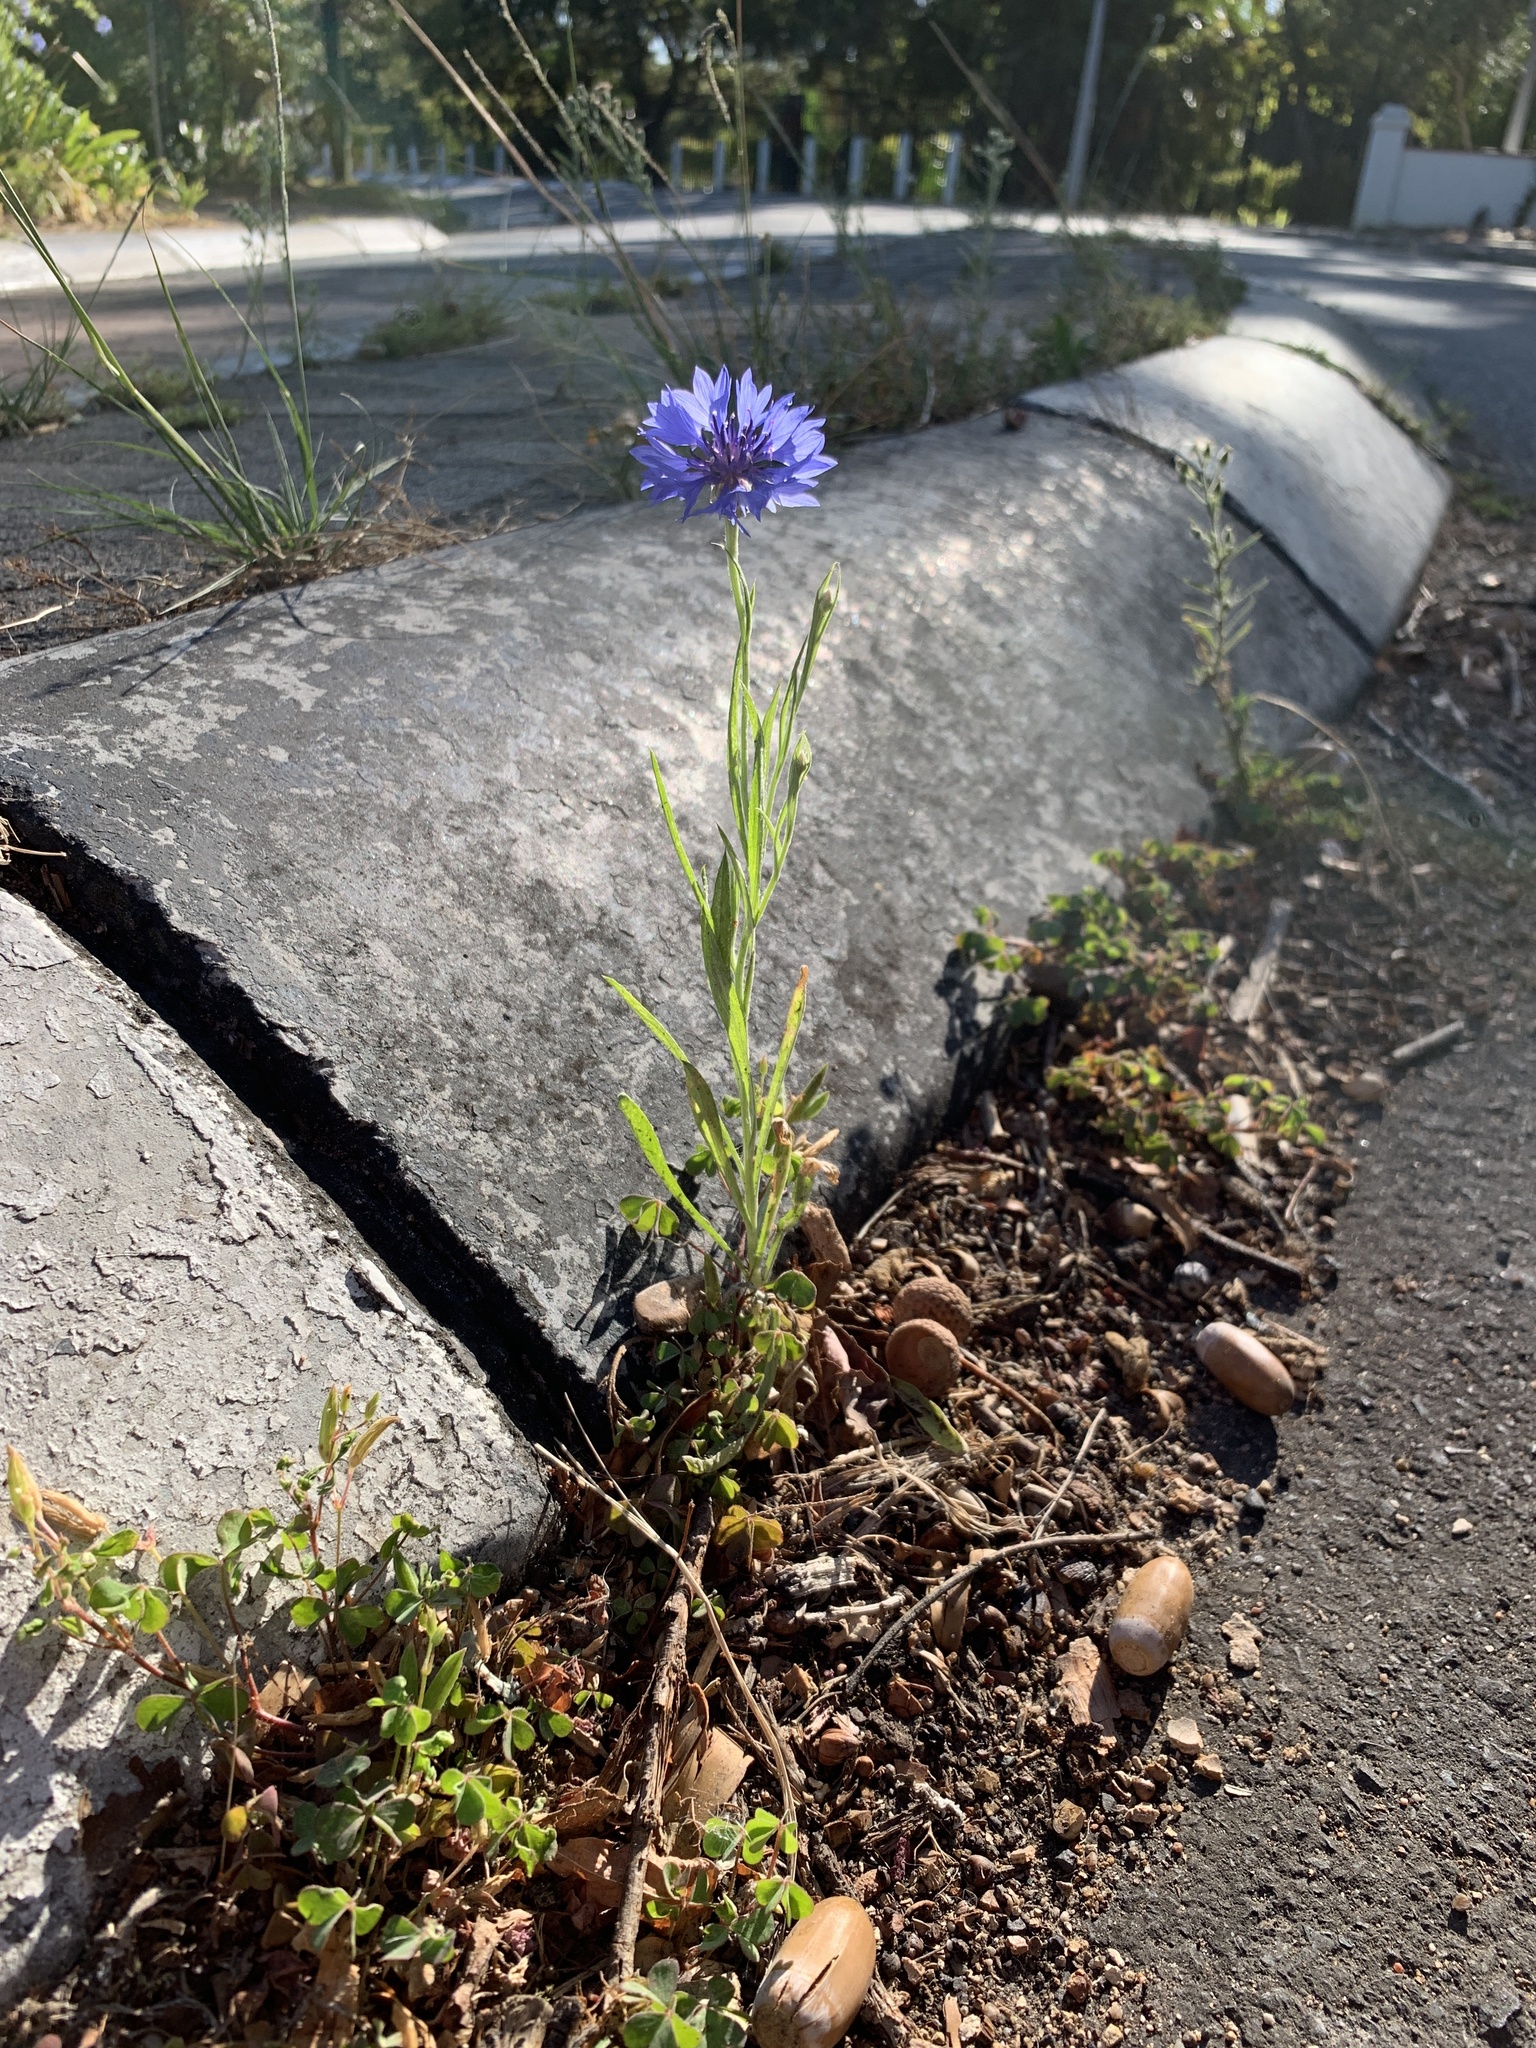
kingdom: Plantae
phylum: Tracheophyta
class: Magnoliopsida
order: Asterales
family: Asteraceae
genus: Centaurea
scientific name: Centaurea cyanus
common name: Cornflower
